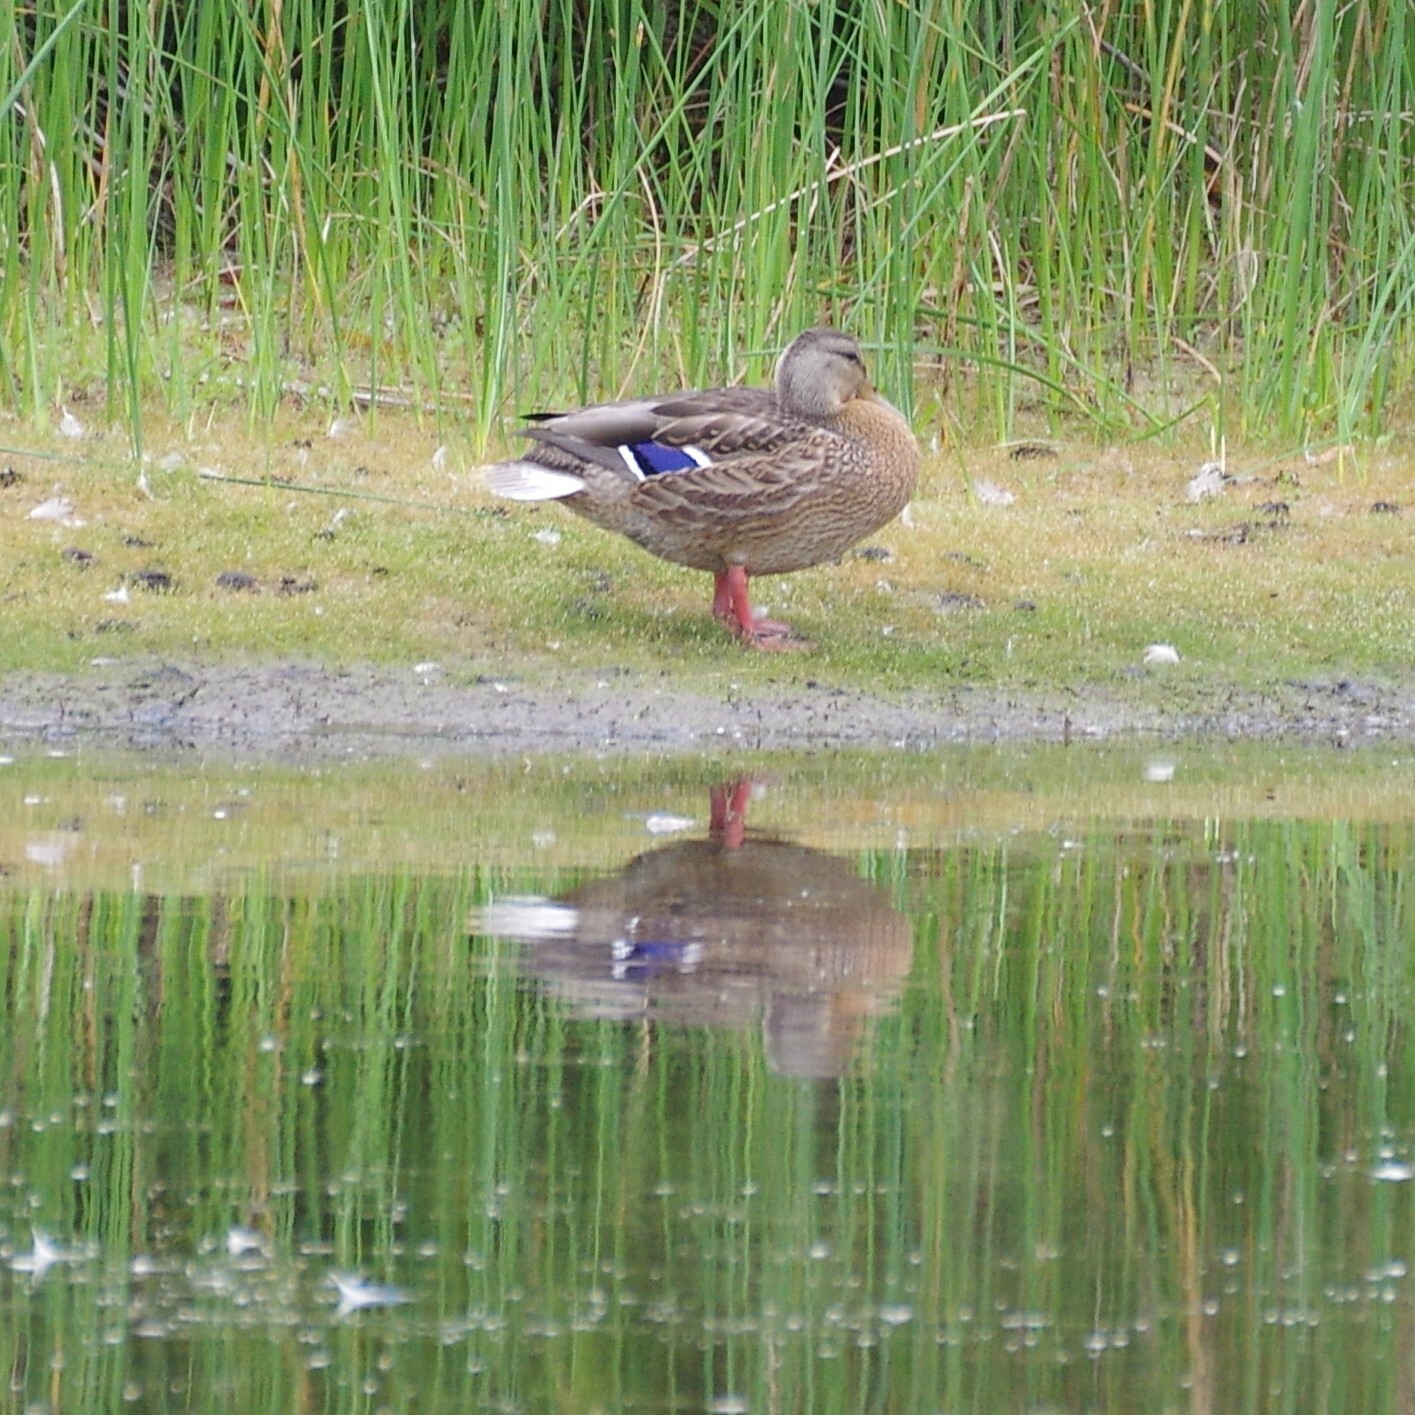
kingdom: Animalia
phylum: Chordata
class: Aves
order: Anseriformes
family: Anatidae
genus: Anas
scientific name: Anas platyrhynchos
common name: Mallard
